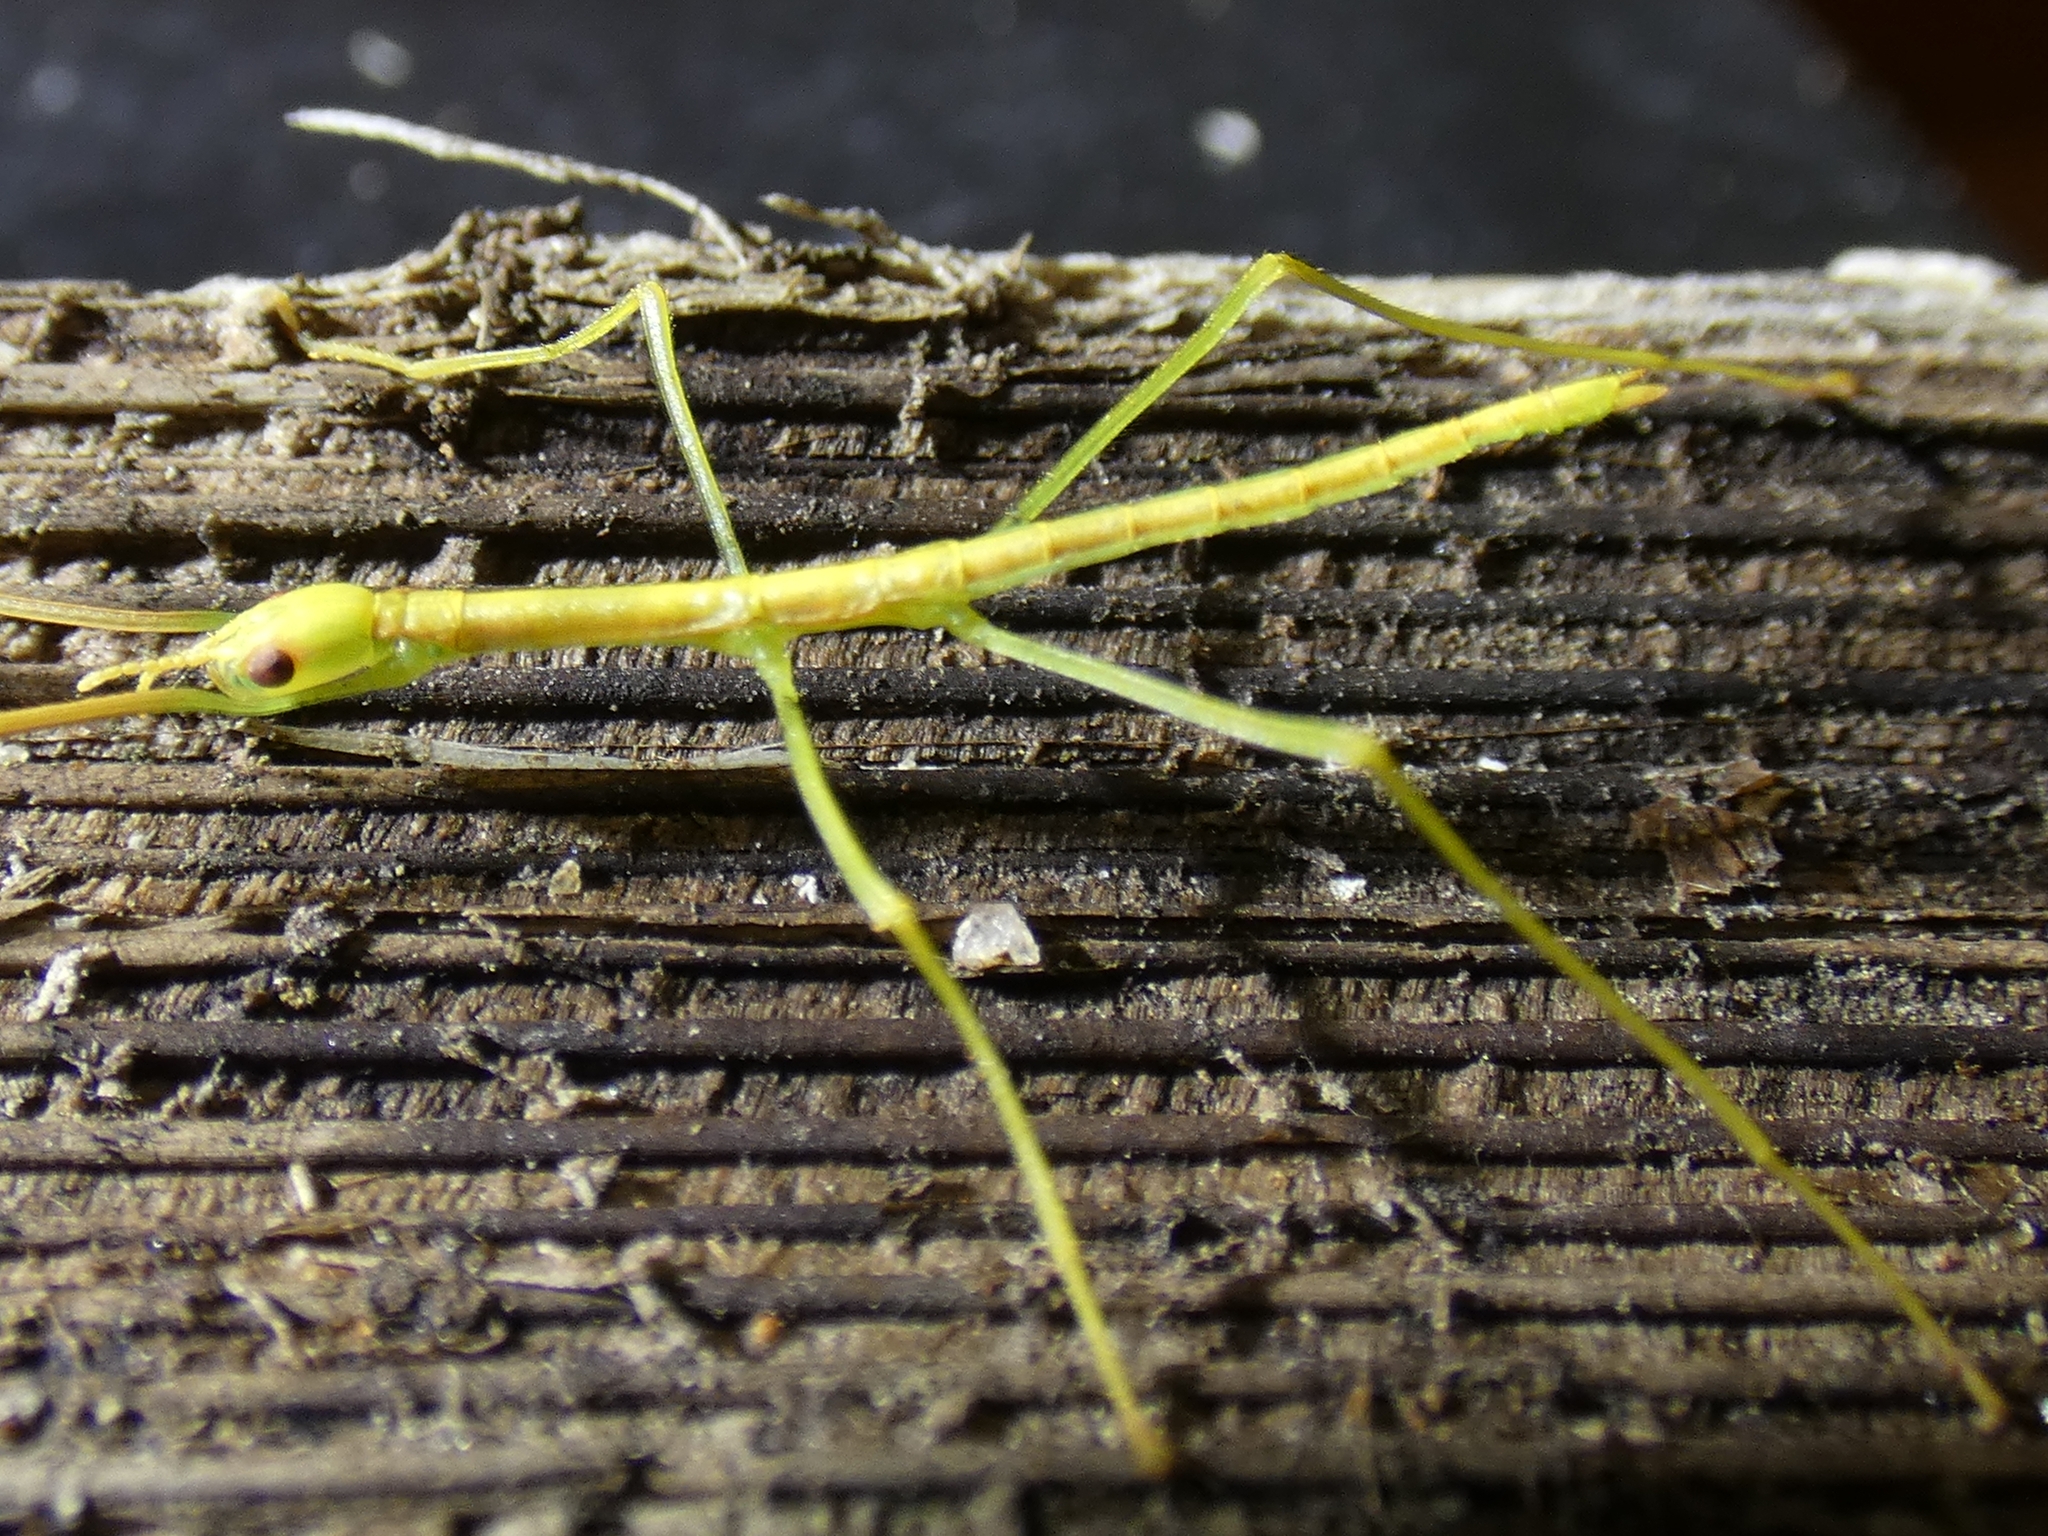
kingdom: Animalia
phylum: Arthropoda
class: Insecta
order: Phasmida
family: Phasmatidae
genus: Anchiale
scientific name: Anchiale briareus
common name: Strong stick insect
